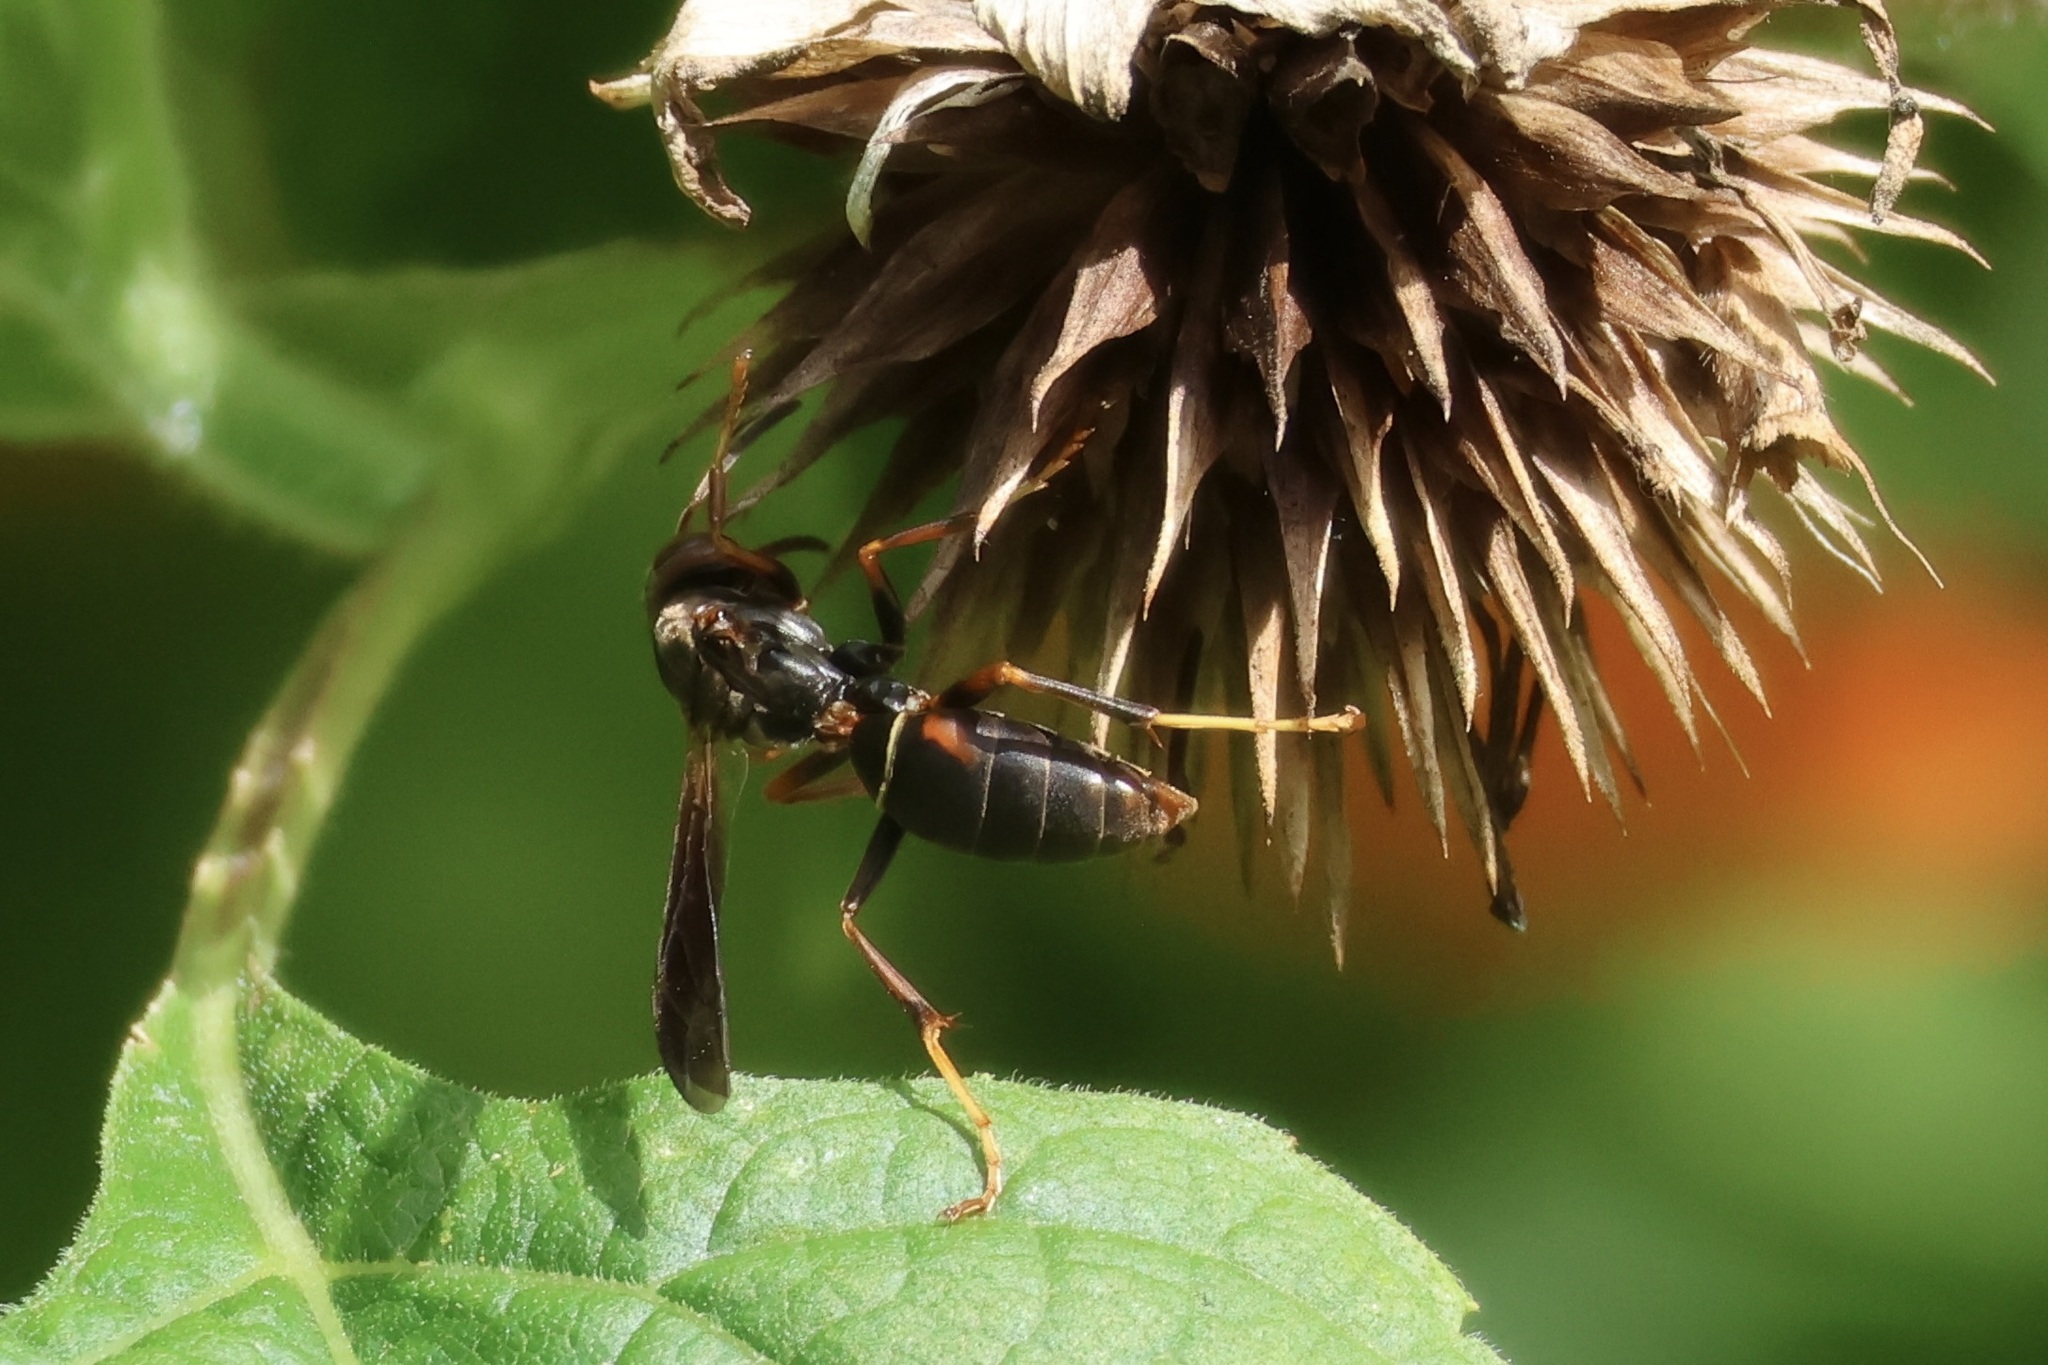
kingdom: Animalia
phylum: Arthropoda
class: Insecta
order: Hymenoptera
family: Eumenidae
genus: Polistes
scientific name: Polistes fuscatus
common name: Dark paper wasp
